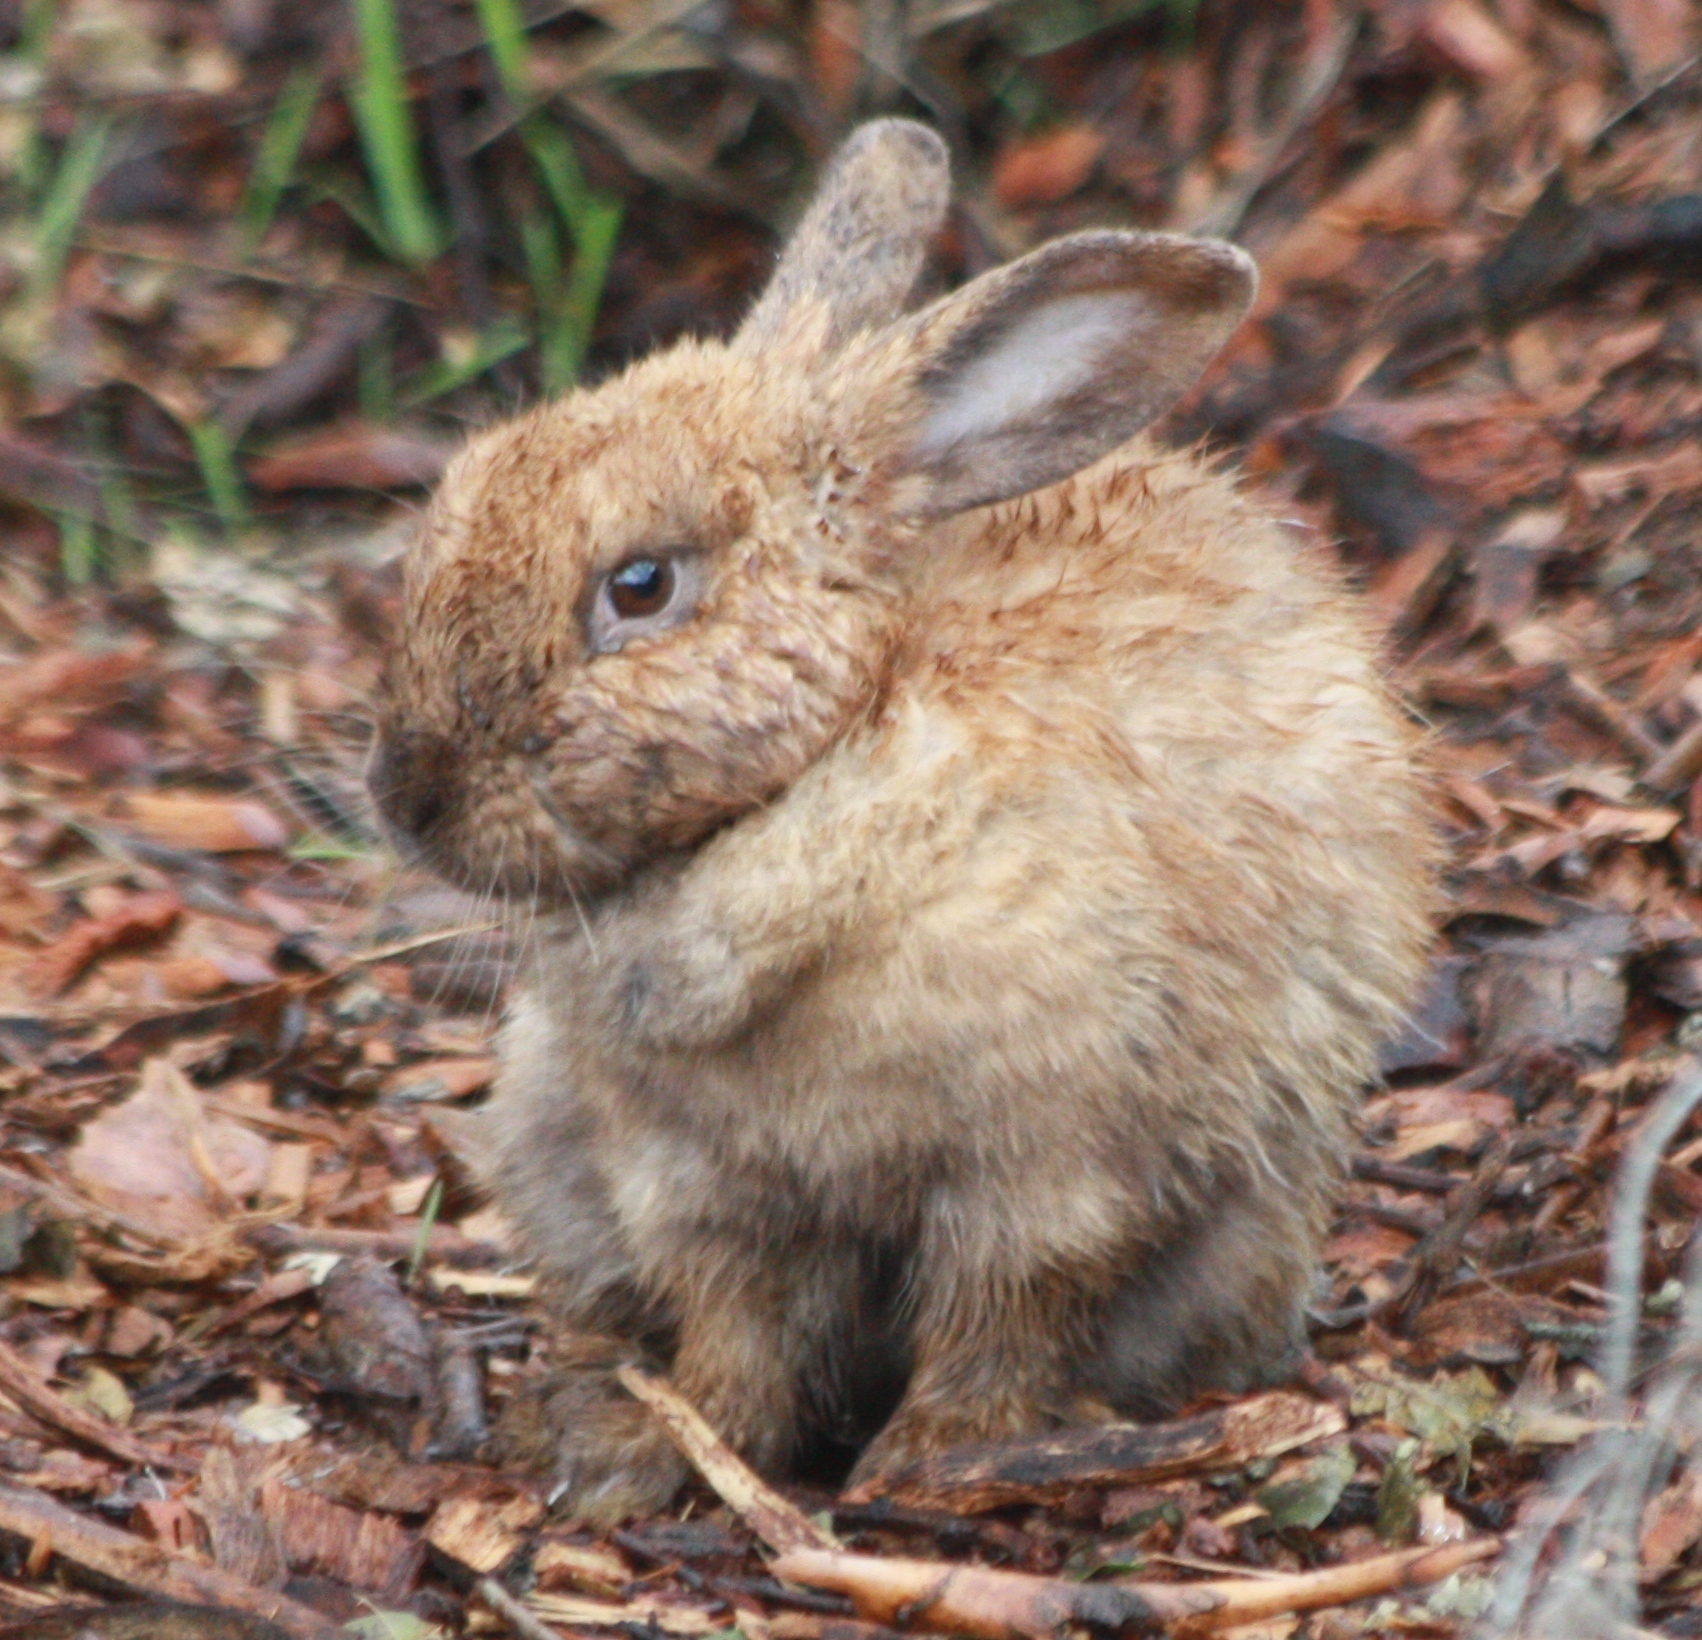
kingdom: Animalia
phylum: Chordata
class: Mammalia
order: Lagomorpha
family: Leporidae
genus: Oryctolagus
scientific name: Oryctolagus cuniculus
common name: European rabbit
